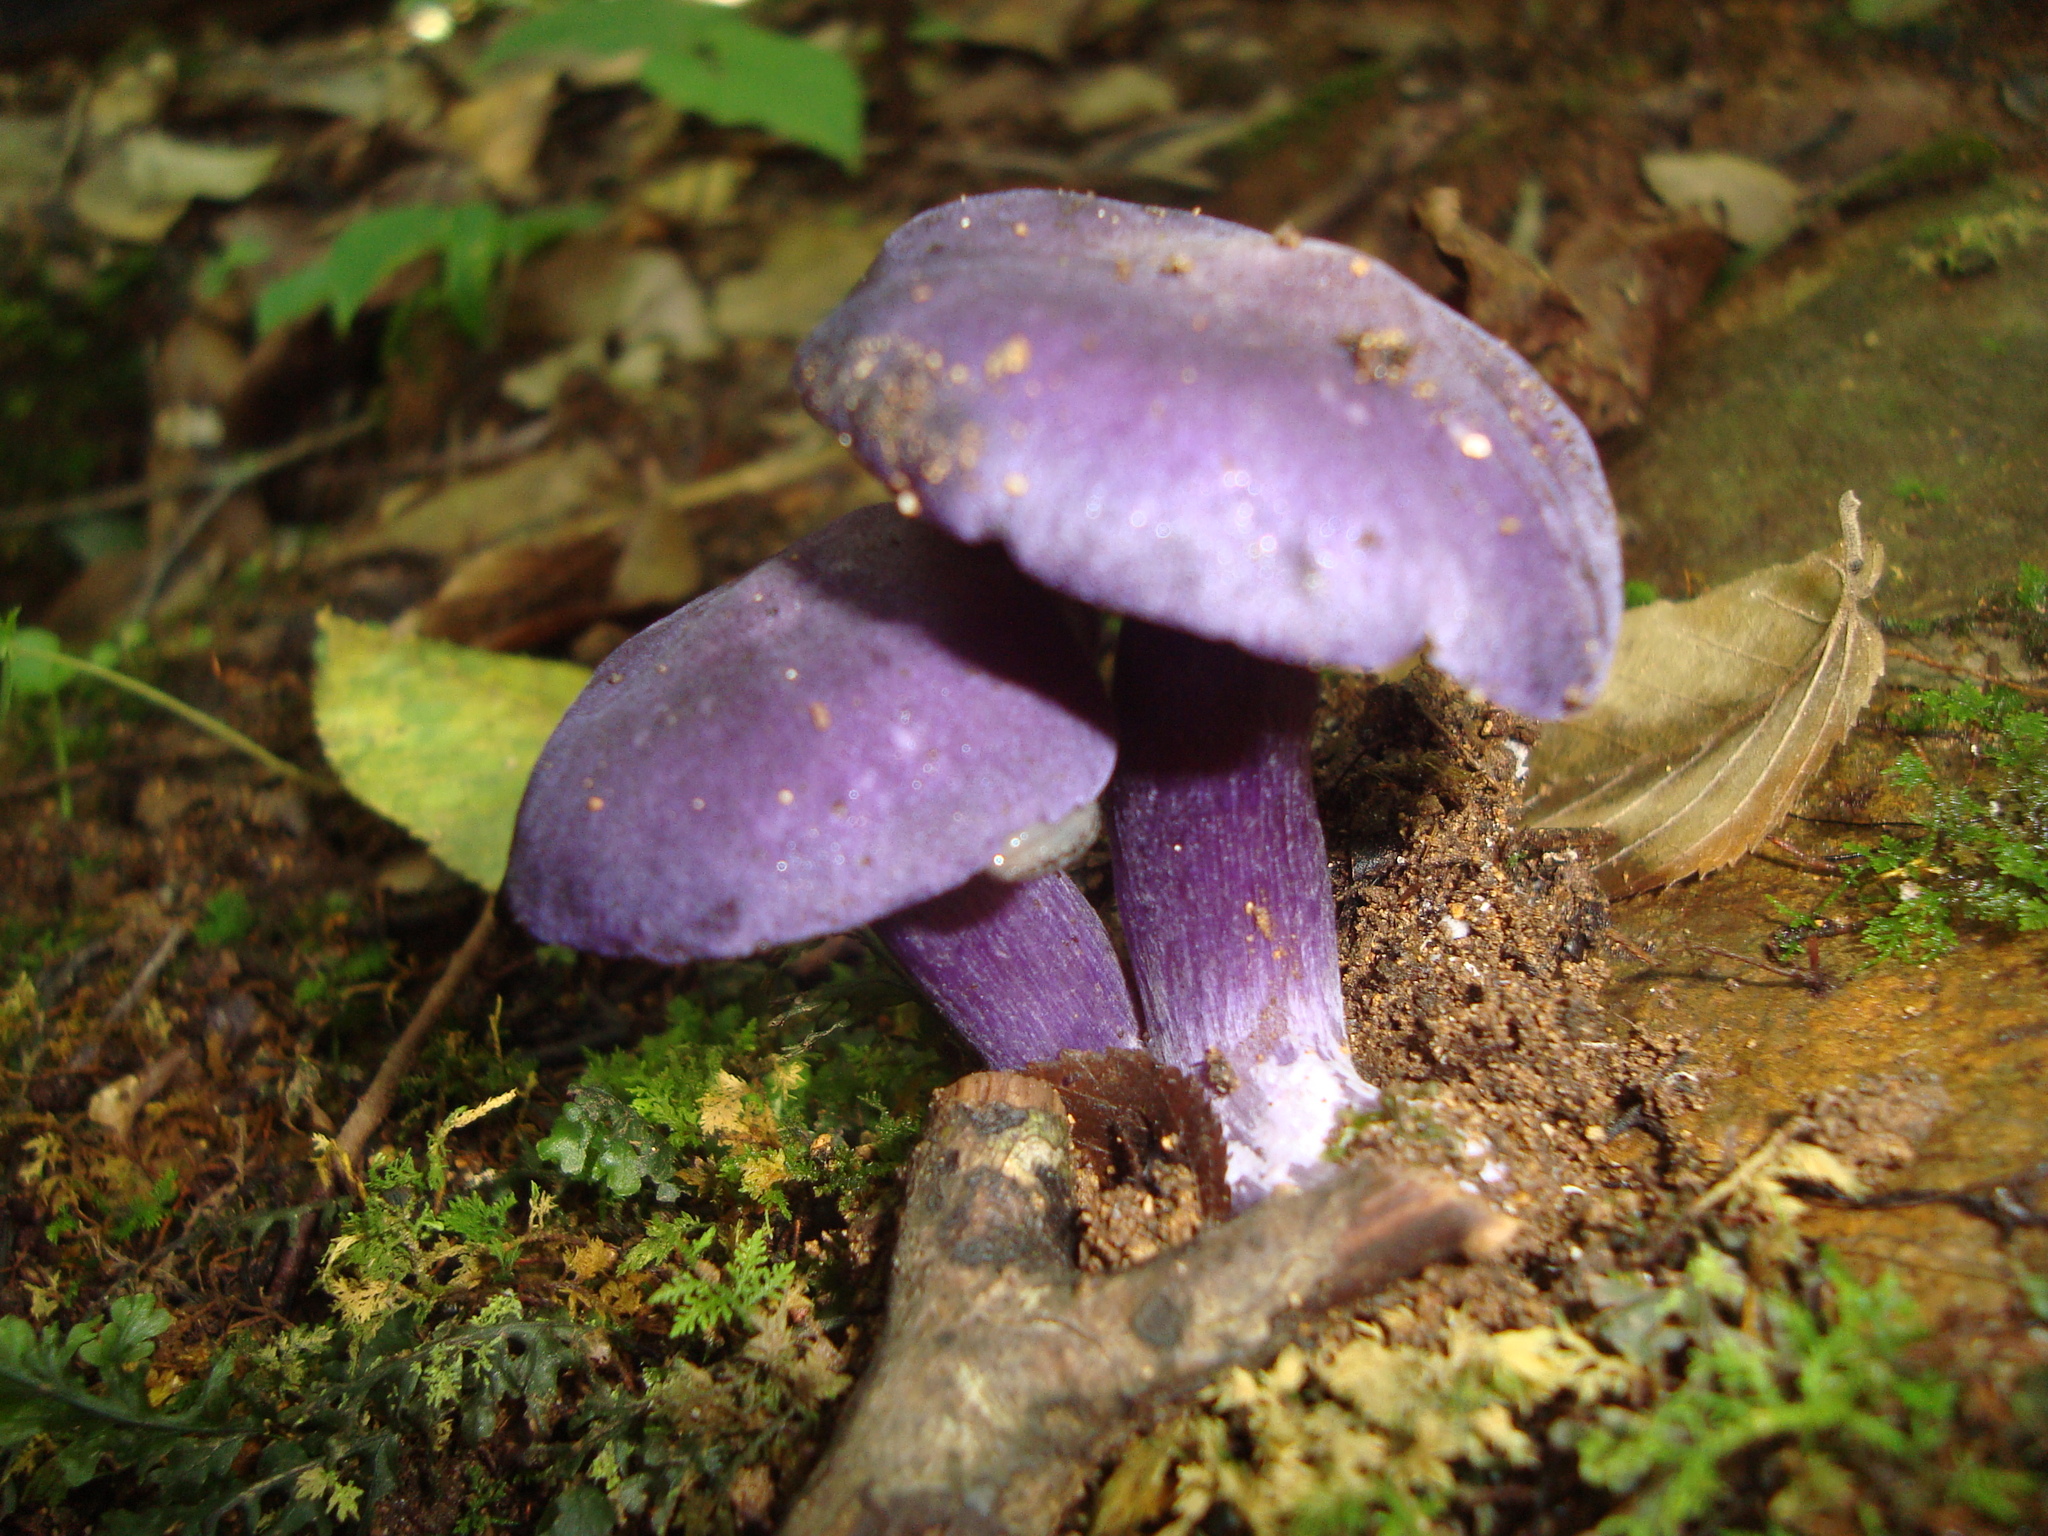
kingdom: Fungi
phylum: Basidiomycota
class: Agaricomycetes
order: Agaricales
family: Tricholomataceae
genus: Tricholosporum
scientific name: Tricholosporum tropicale
